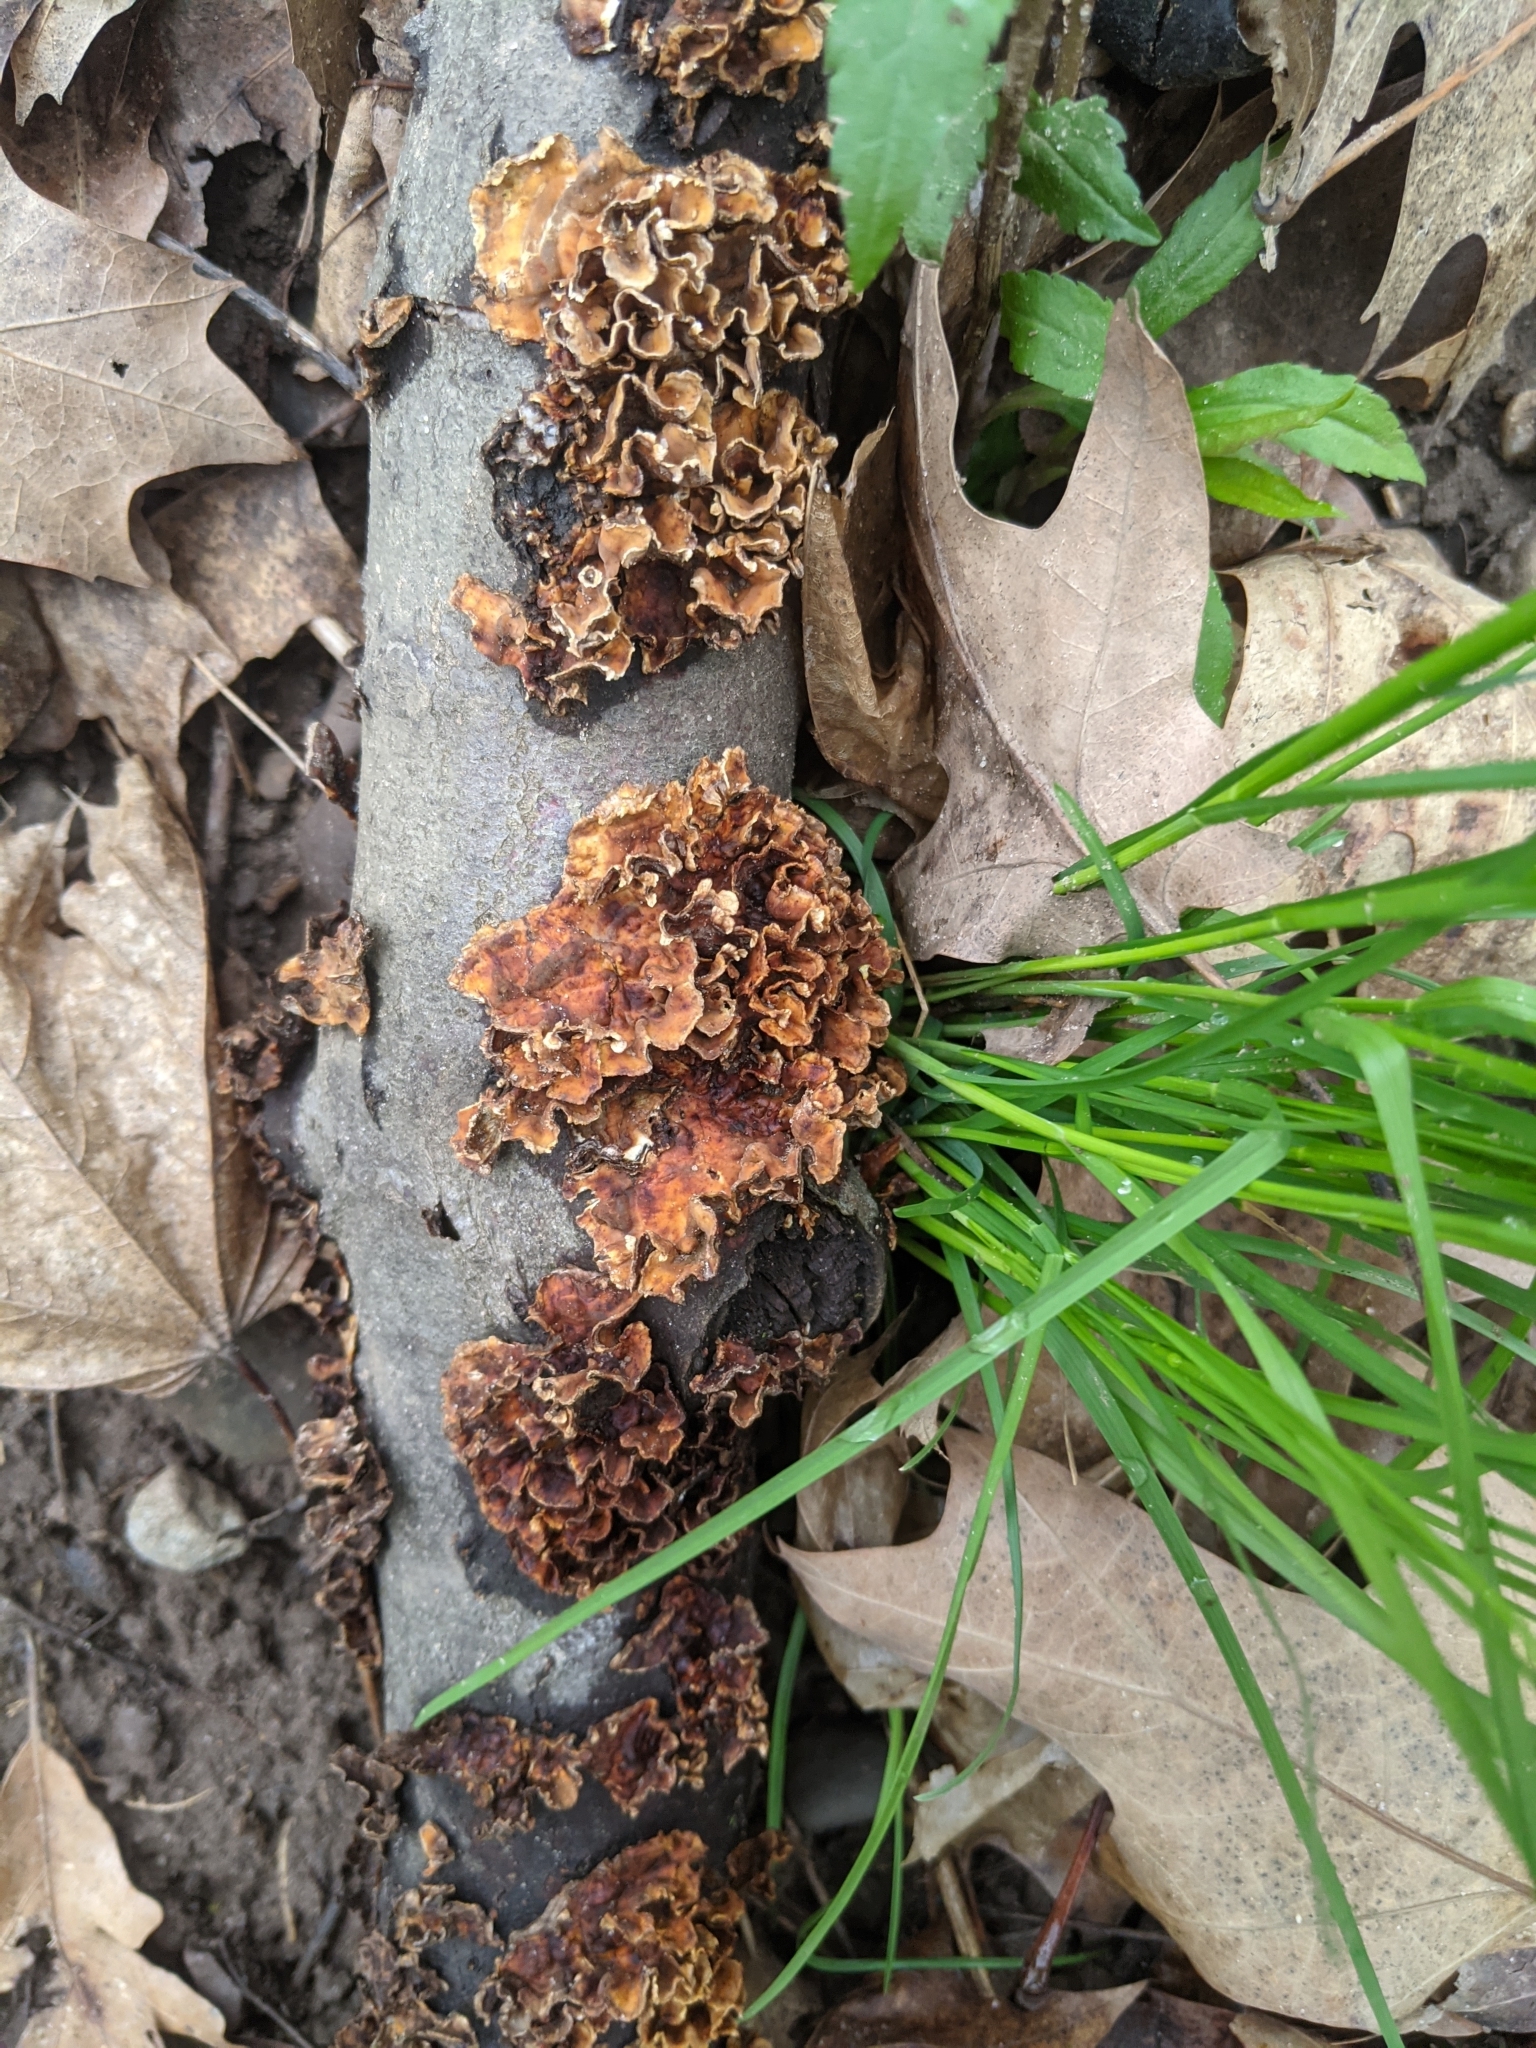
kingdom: Fungi
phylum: Basidiomycota
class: Agaricomycetes
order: Russulales
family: Stereaceae
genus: Stereum
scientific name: Stereum complicatum
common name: Crowded parchment
